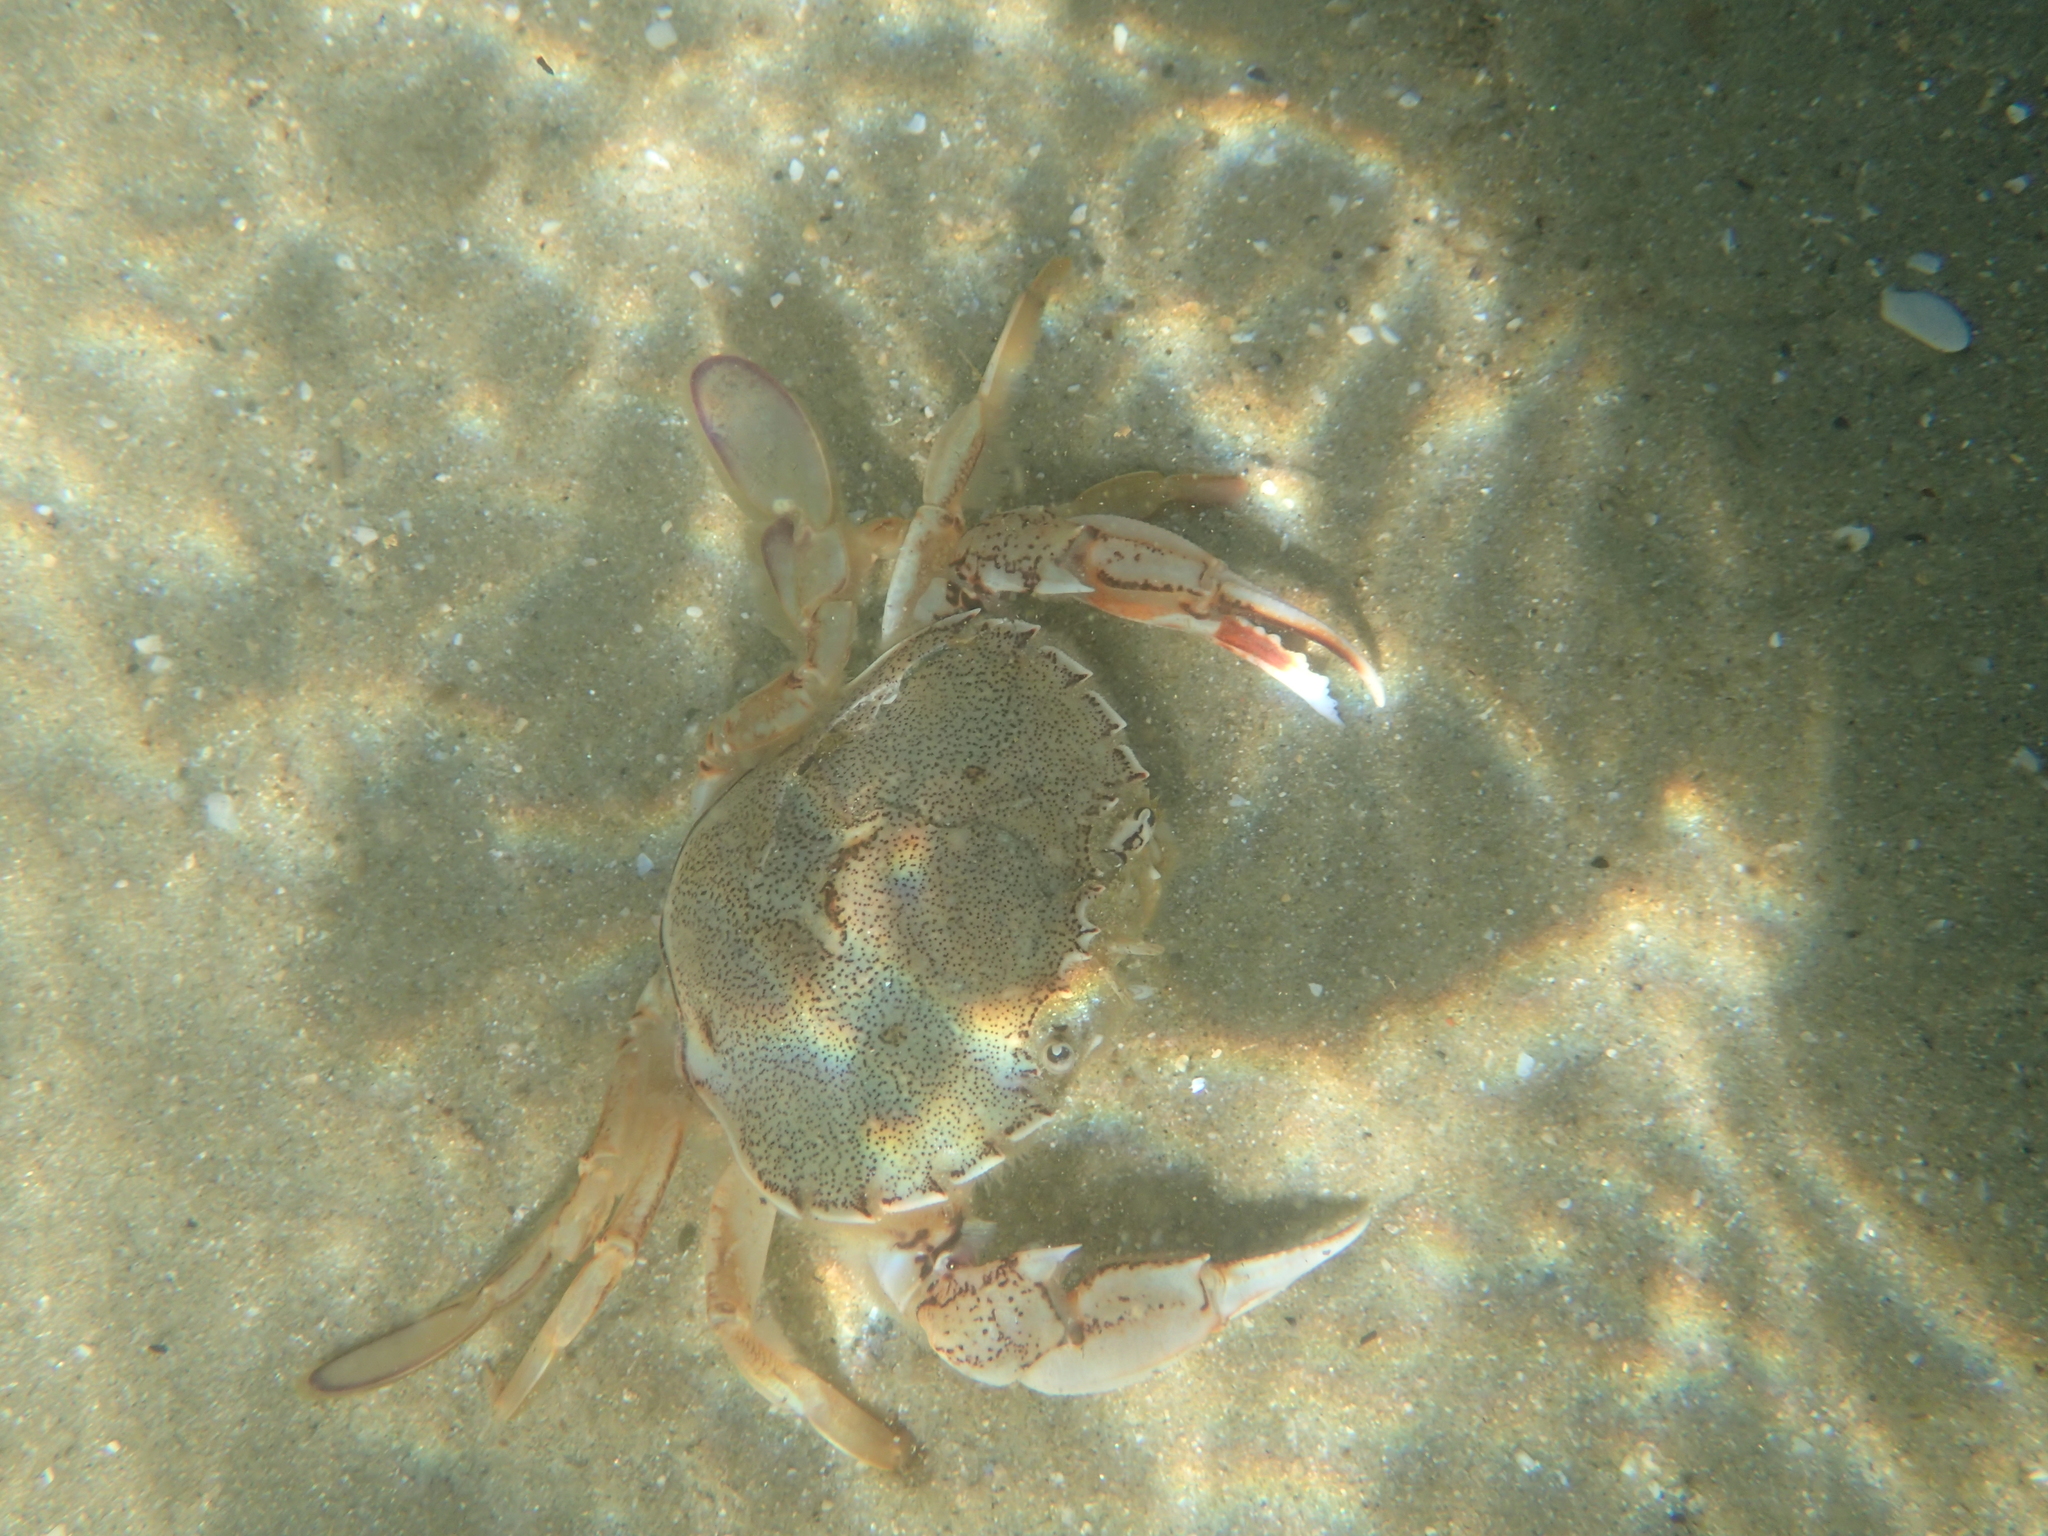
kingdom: Animalia
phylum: Arthropoda
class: Malacostraca
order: Decapoda
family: Ovalipidae
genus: Ovalipes
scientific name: Ovalipes catharus
